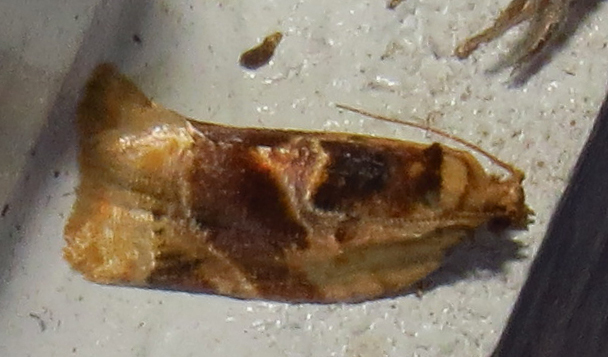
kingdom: Animalia
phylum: Arthropoda
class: Insecta
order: Lepidoptera
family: Tortricidae
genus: Argyrotaenia
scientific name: Argyrotaenia velutinana
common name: Red-banded leafroller moth
